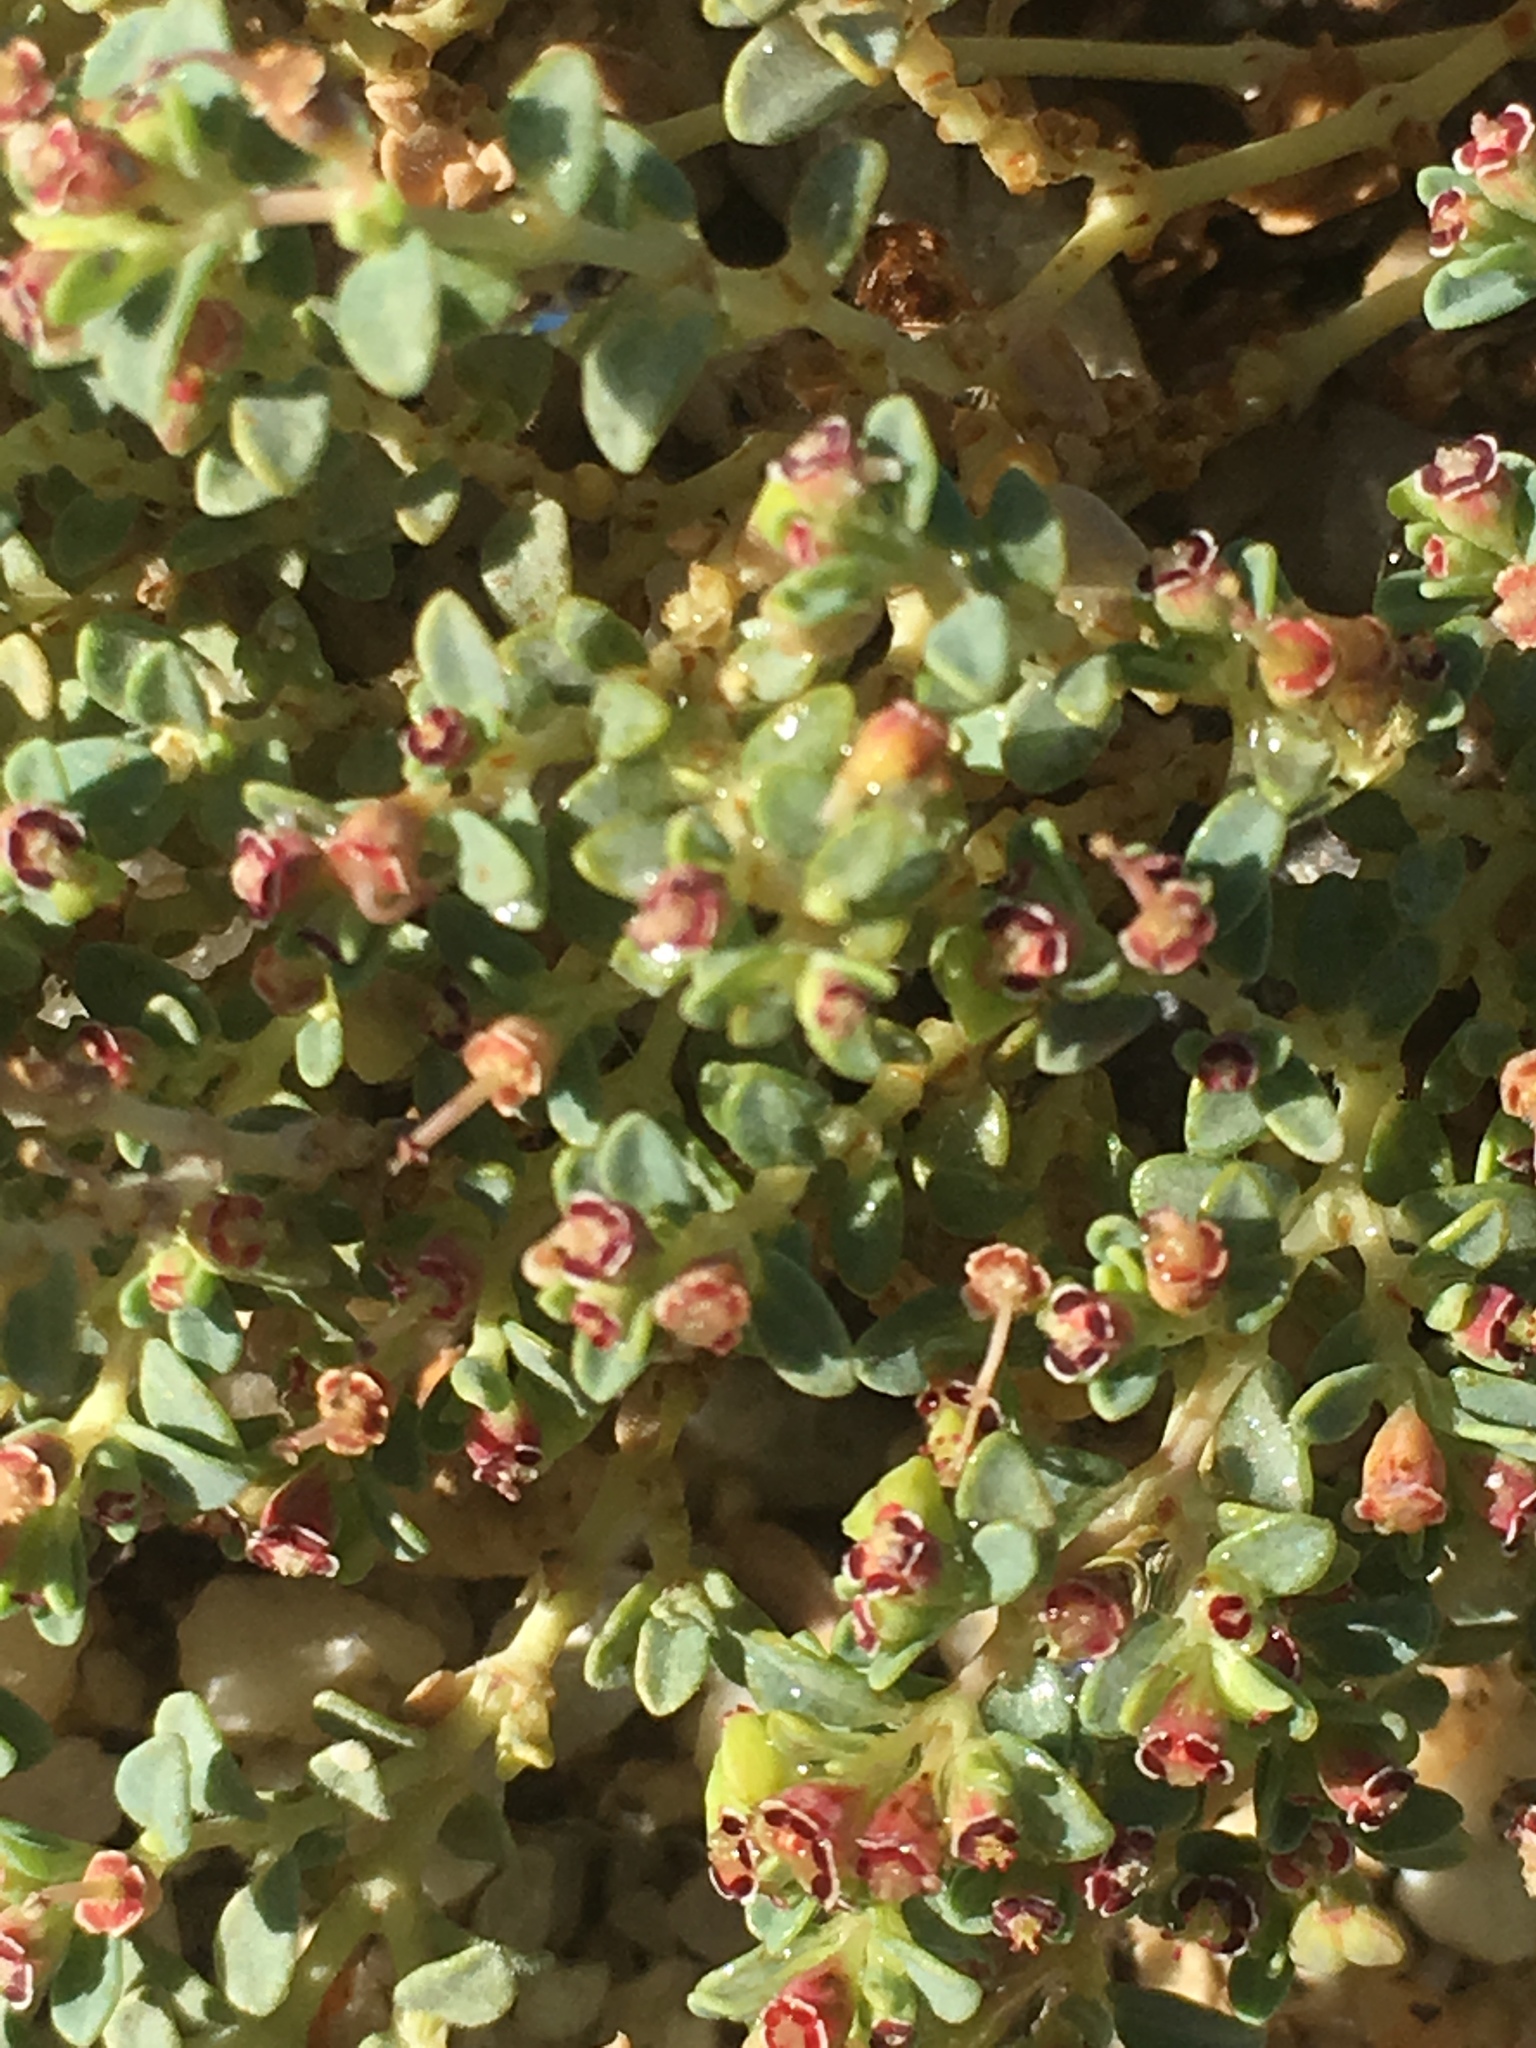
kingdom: Plantae
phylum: Tracheophyta
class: Magnoliopsida
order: Malpighiales
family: Euphorbiaceae
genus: Euphorbia
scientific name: Euphorbia polycarpa
